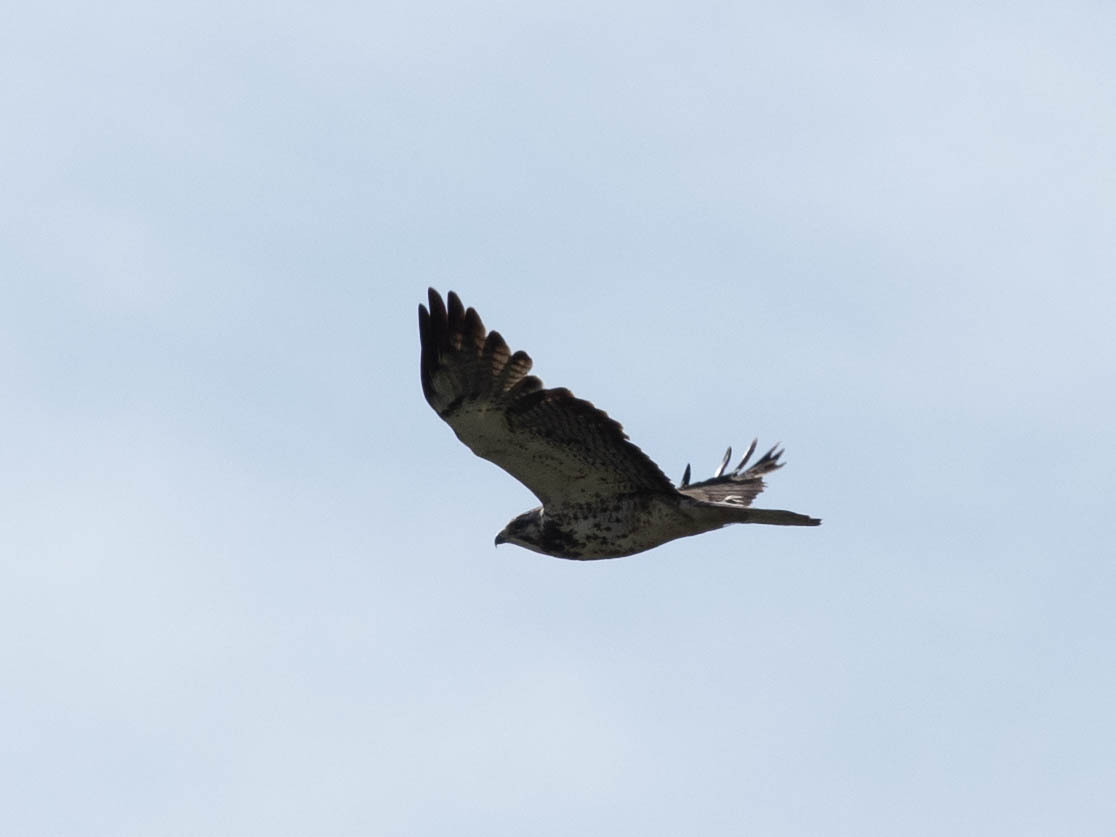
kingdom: Animalia
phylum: Chordata
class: Aves
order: Accipitriformes
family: Accipitridae
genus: Buteo
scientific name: Buteo swainsoni
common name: Swainson's hawk
